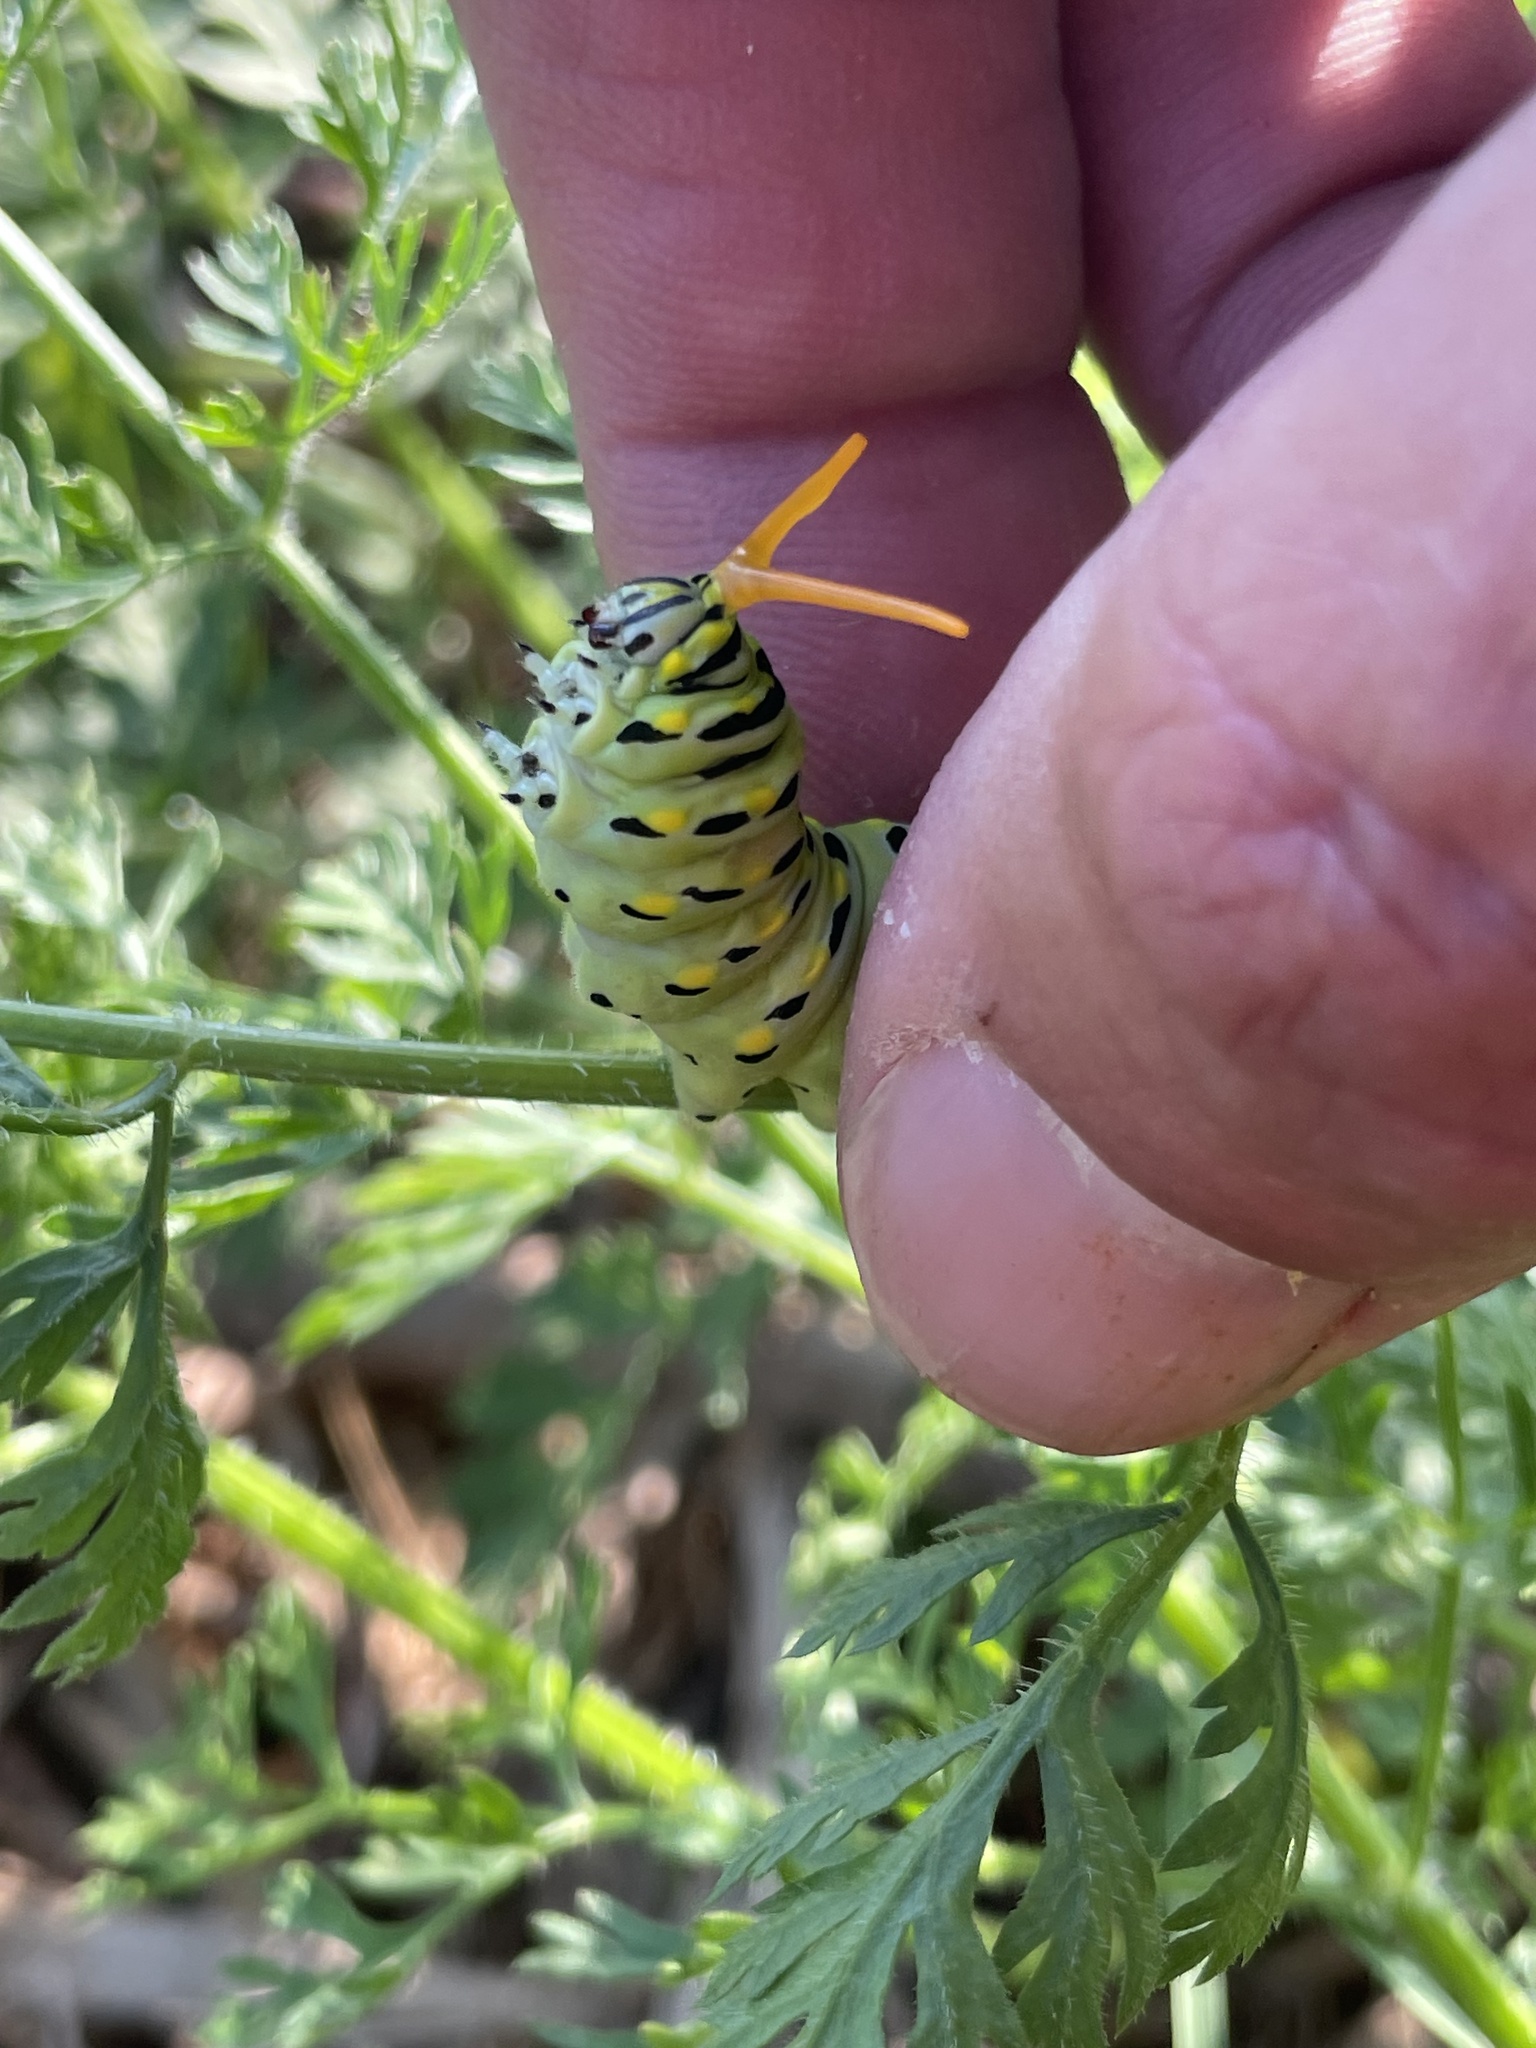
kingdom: Animalia
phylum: Arthropoda
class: Insecta
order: Lepidoptera
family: Papilionidae
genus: Papilio
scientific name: Papilio polyxenes
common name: Black swallowtail
